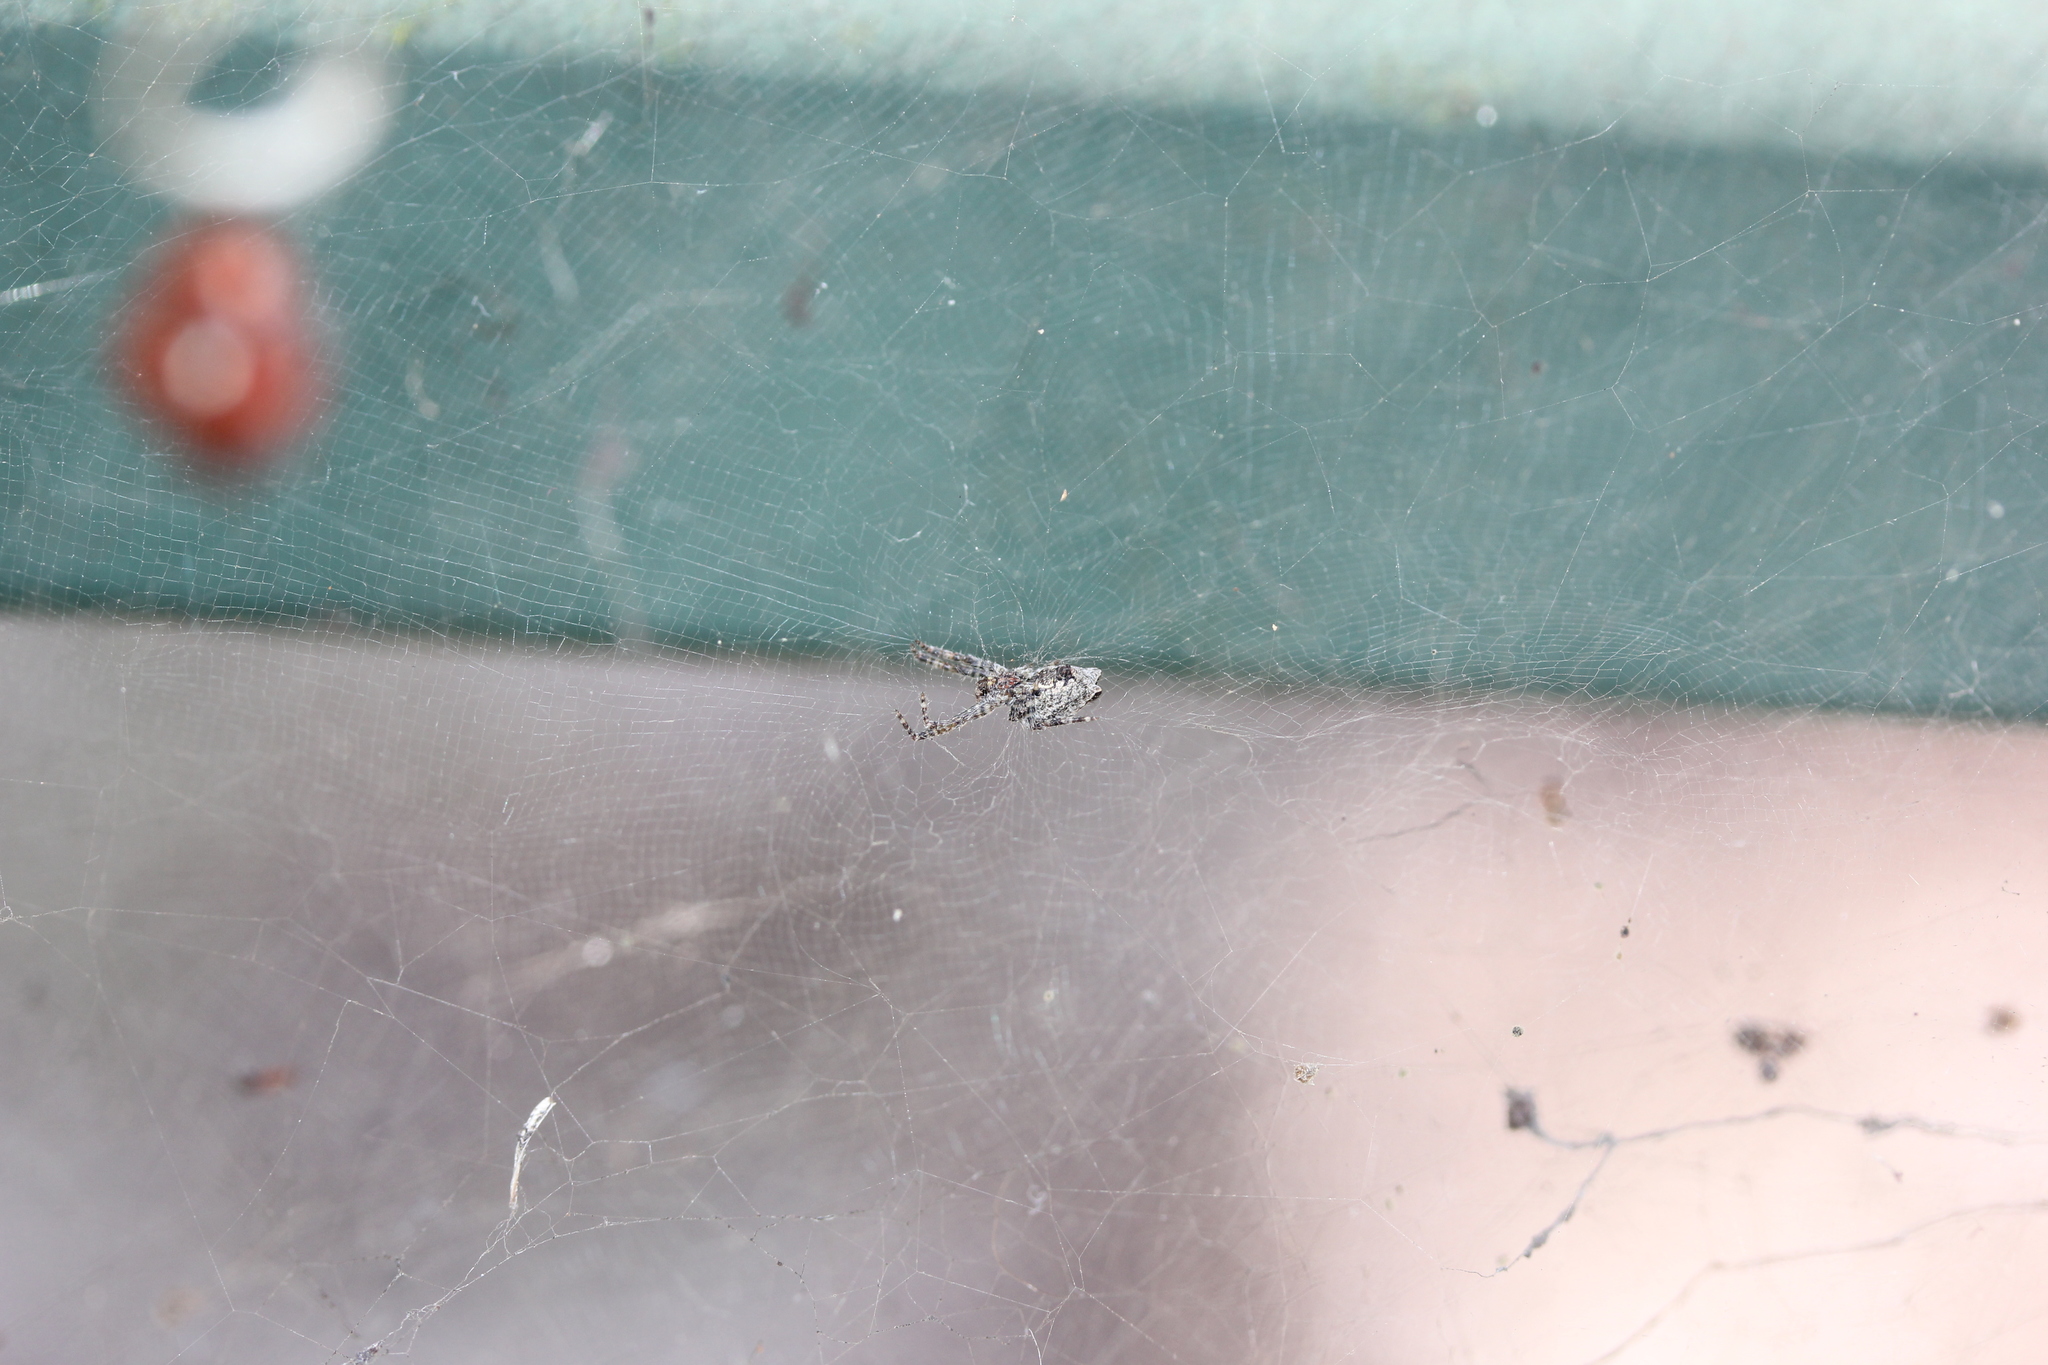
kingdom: Animalia
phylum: Arthropoda
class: Arachnida
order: Araneae
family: Araneidae
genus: Cyrtophora
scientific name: Cyrtophora citricola
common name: Orb weavers
